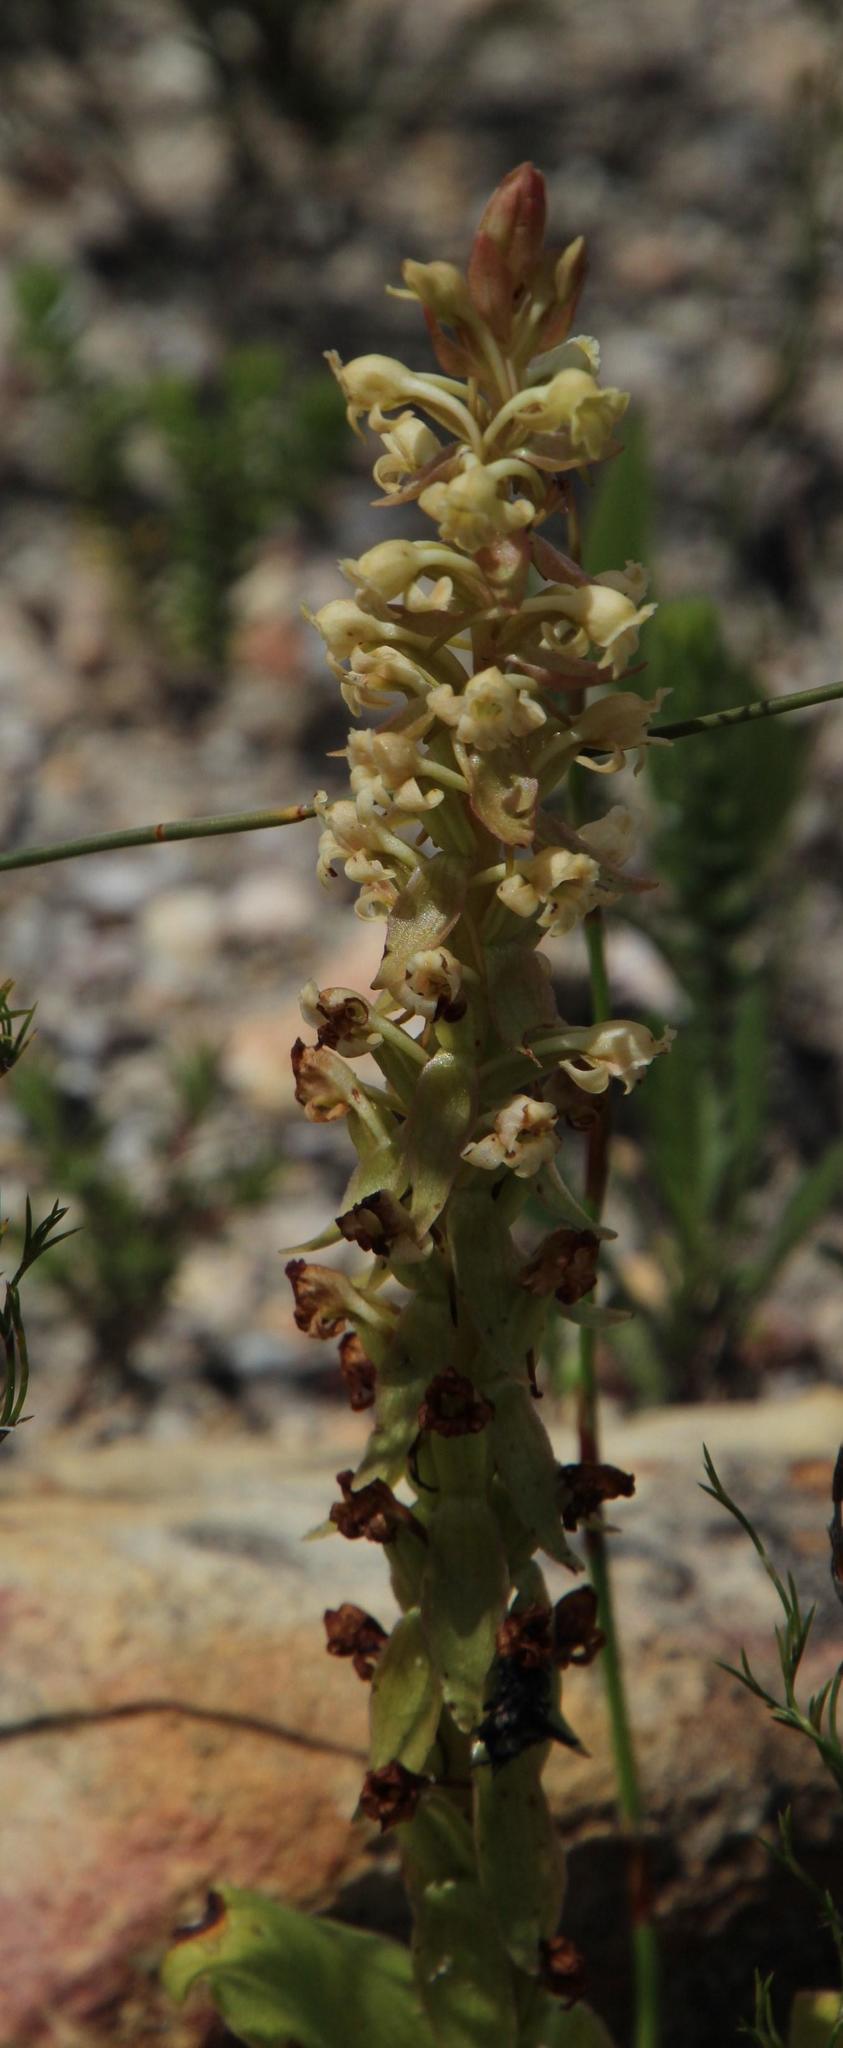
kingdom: Plantae
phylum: Tracheophyta
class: Liliopsida
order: Asparagales
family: Orchidaceae
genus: Satyrium
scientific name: Satyrium humile
